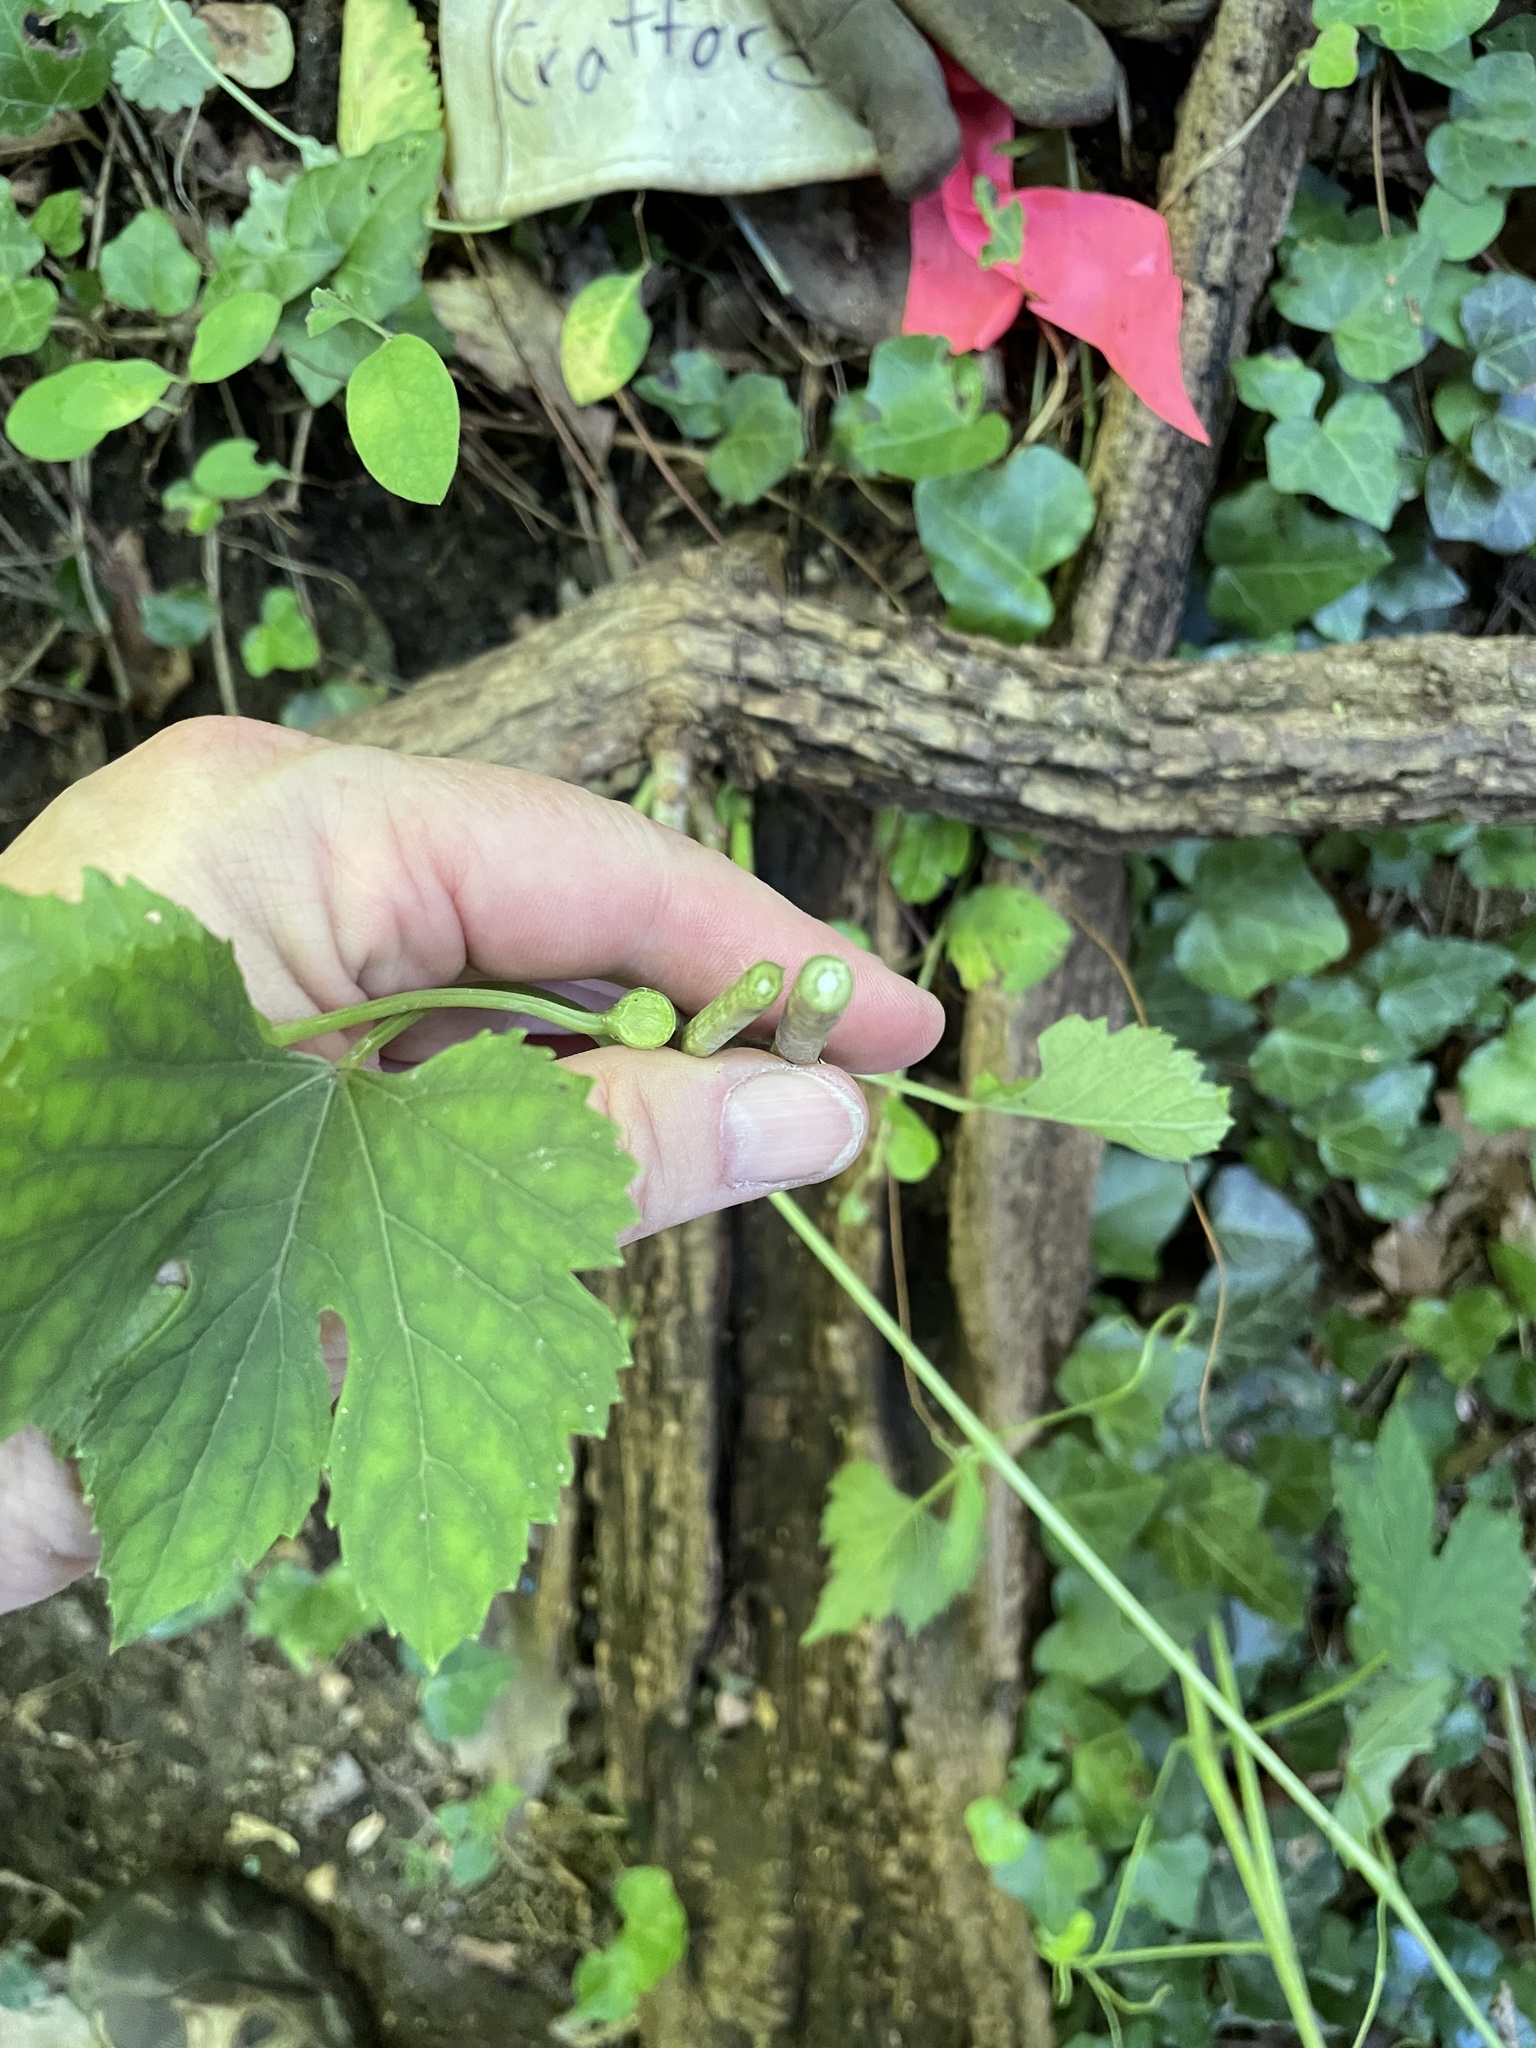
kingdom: Plantae
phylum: Tracheophyta
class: Magnoliopsida
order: Vitales
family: Vitaceae
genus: Ampelopsis
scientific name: Ampelopsis glandulosa
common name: Amur peppervine
